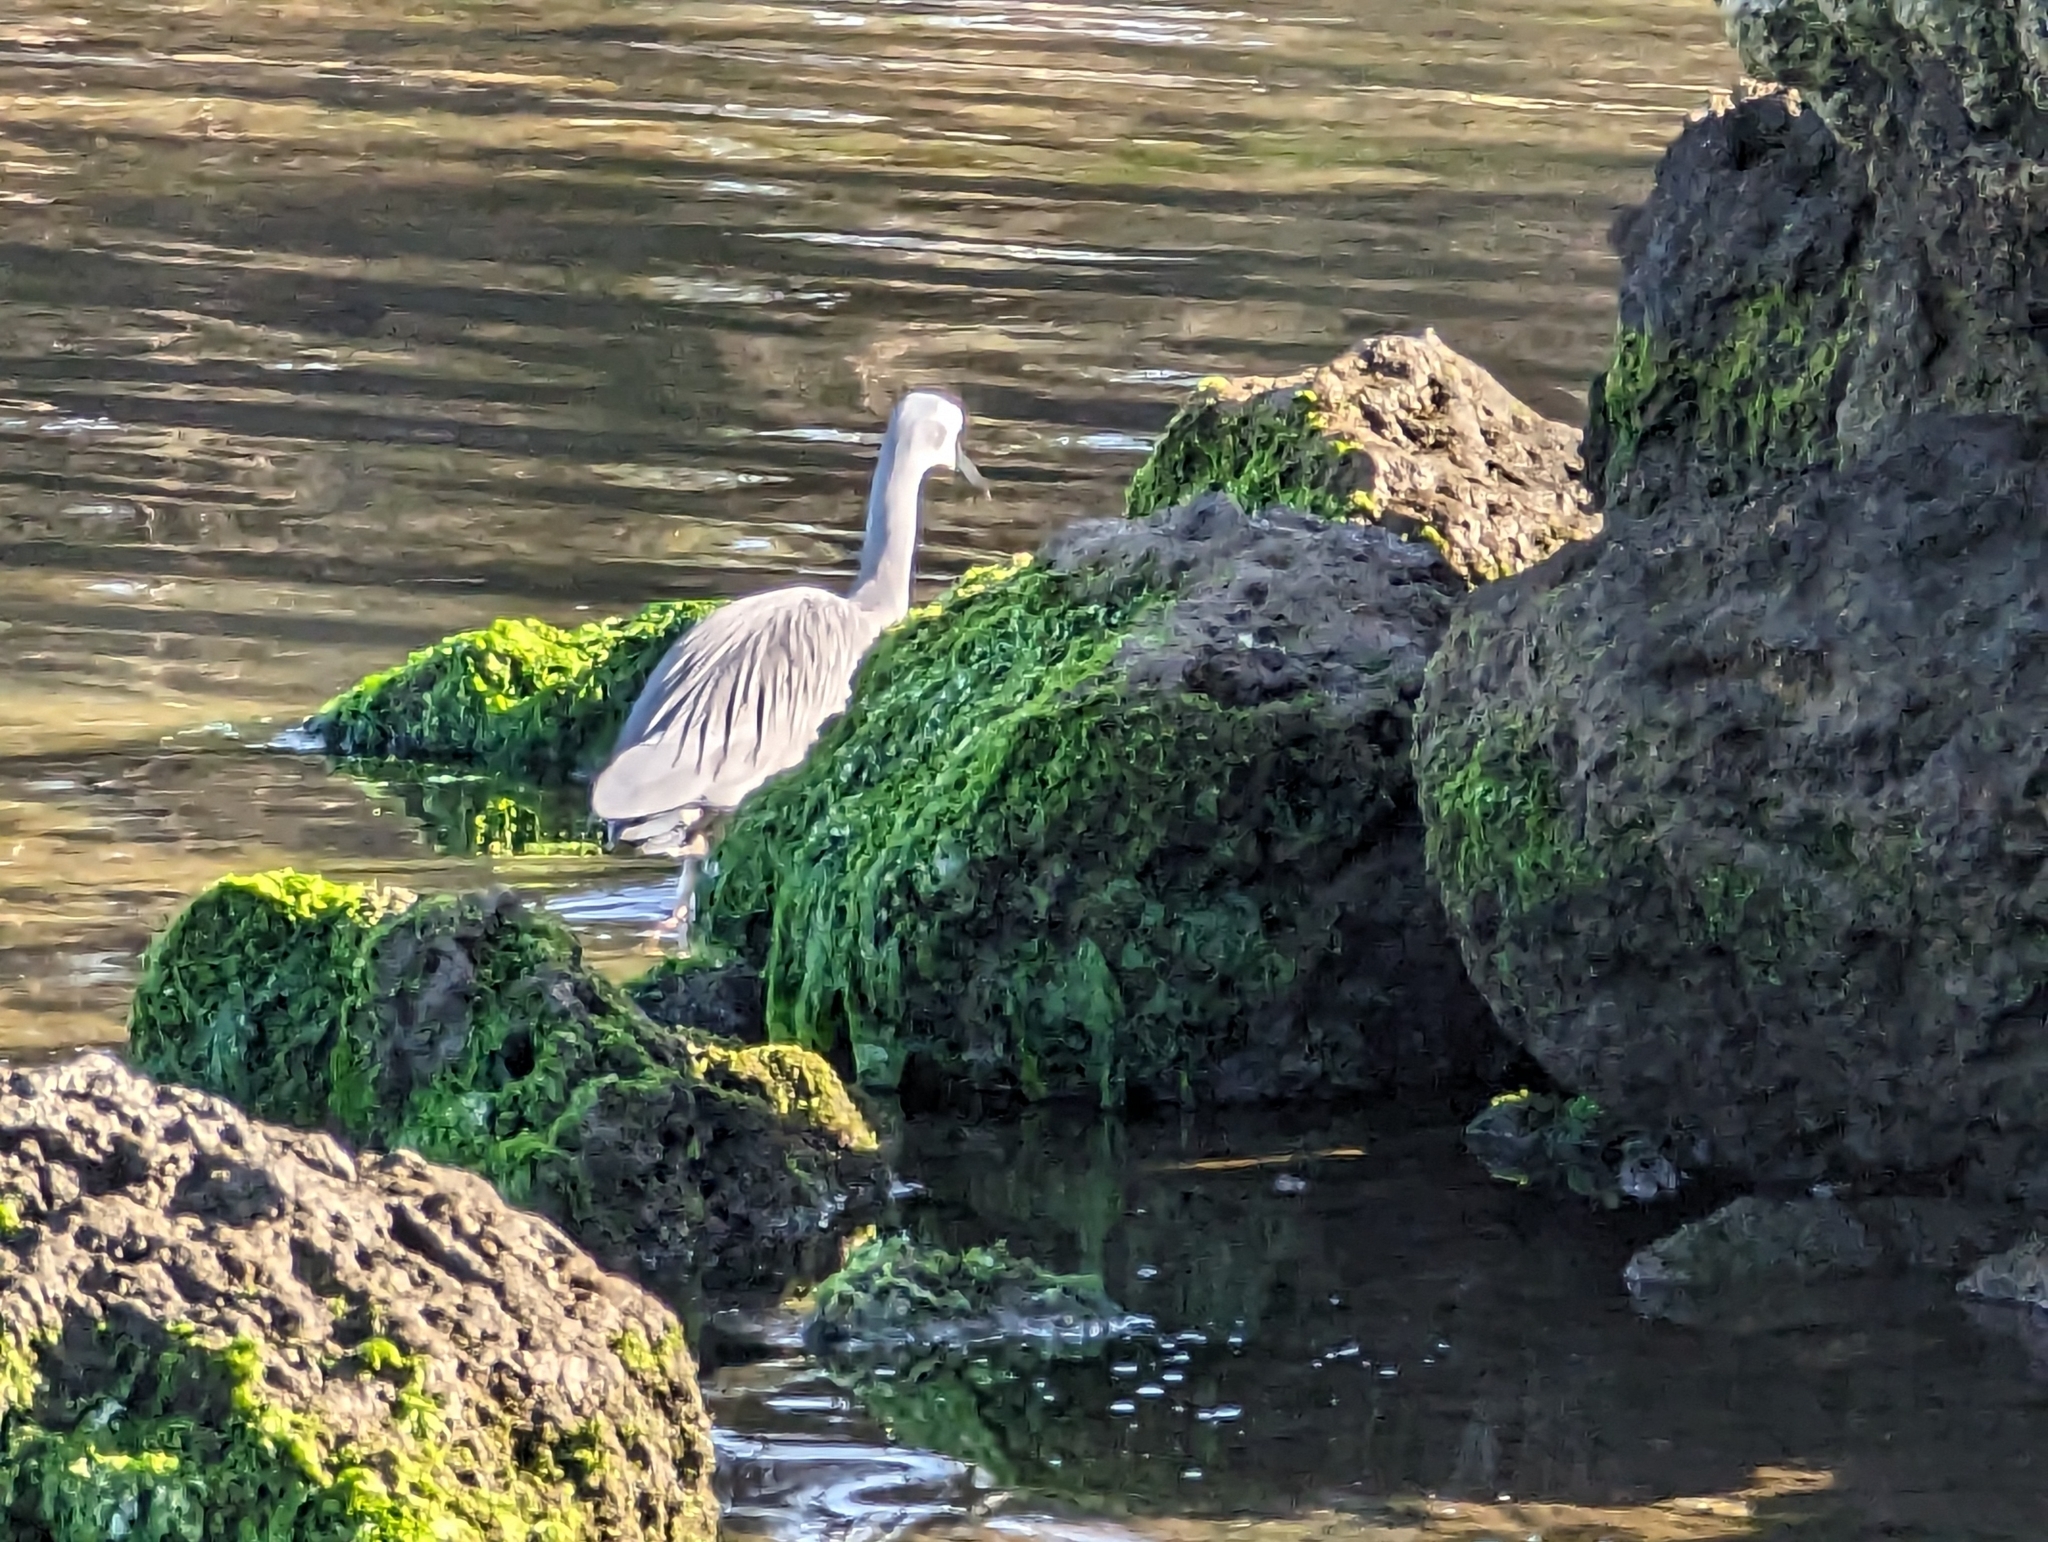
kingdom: Animalia
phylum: Chordata
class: Aves
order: Pelecaniformes
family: Ardeidae
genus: Egretta
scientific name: Egretta novaehollandiae
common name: White-faced heron
